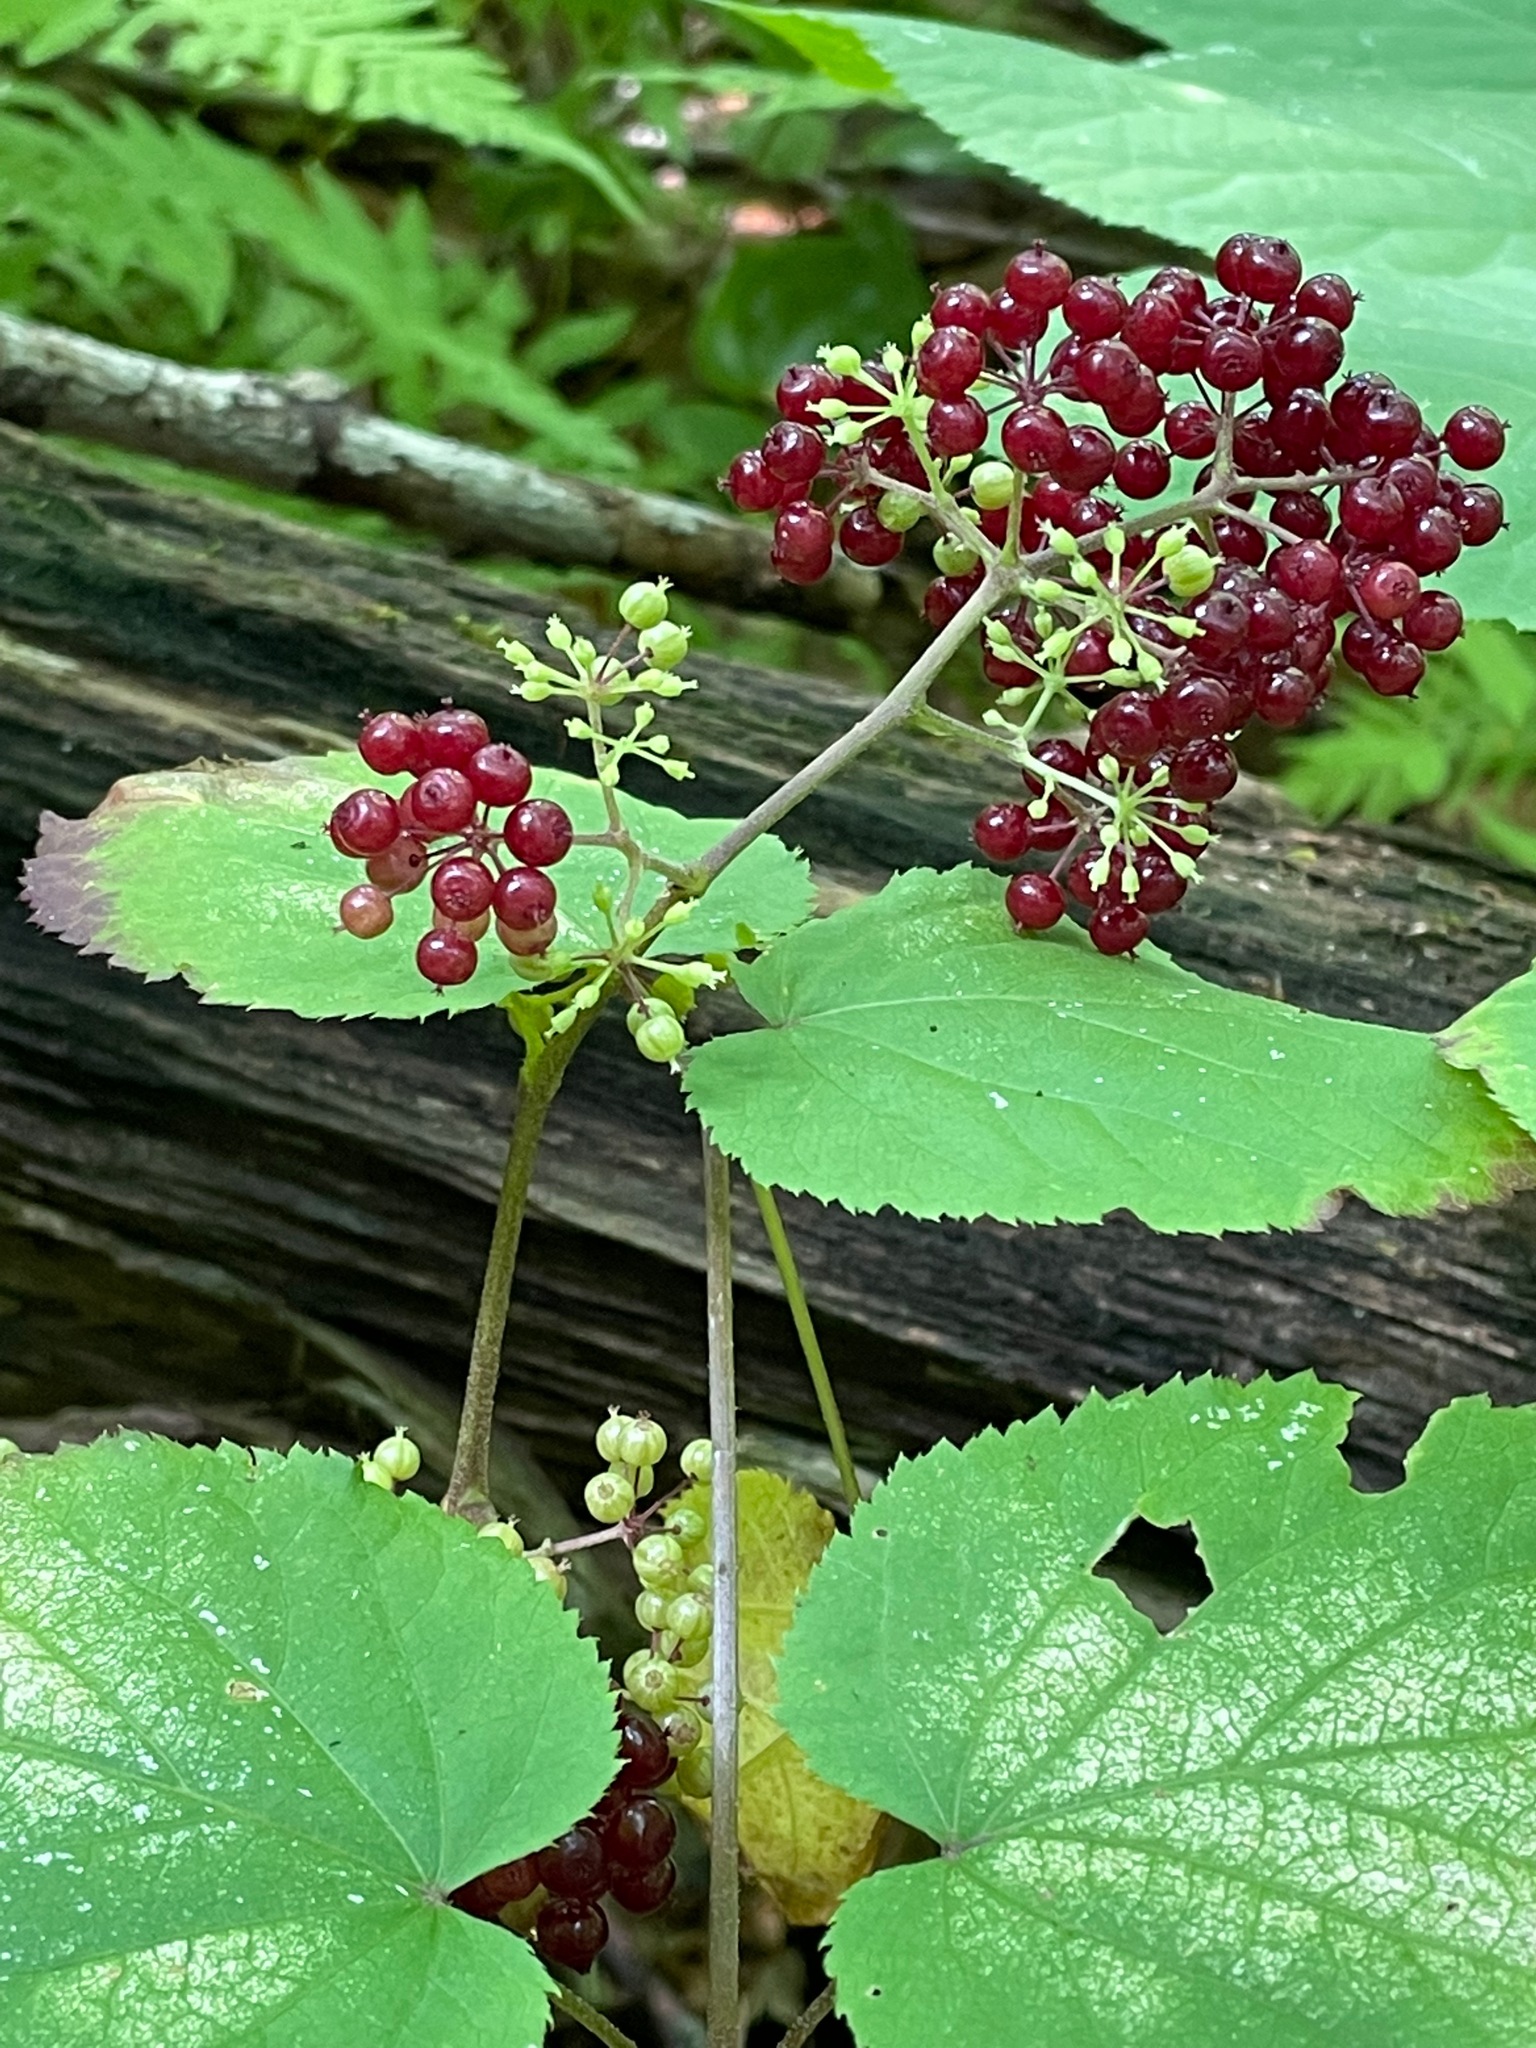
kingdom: Plantae
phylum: Tracheophyta
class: Magnoliopsida
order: Apiales
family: Araliaceae
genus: Aralia
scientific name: Aralia racemosa
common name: American-spikenard
